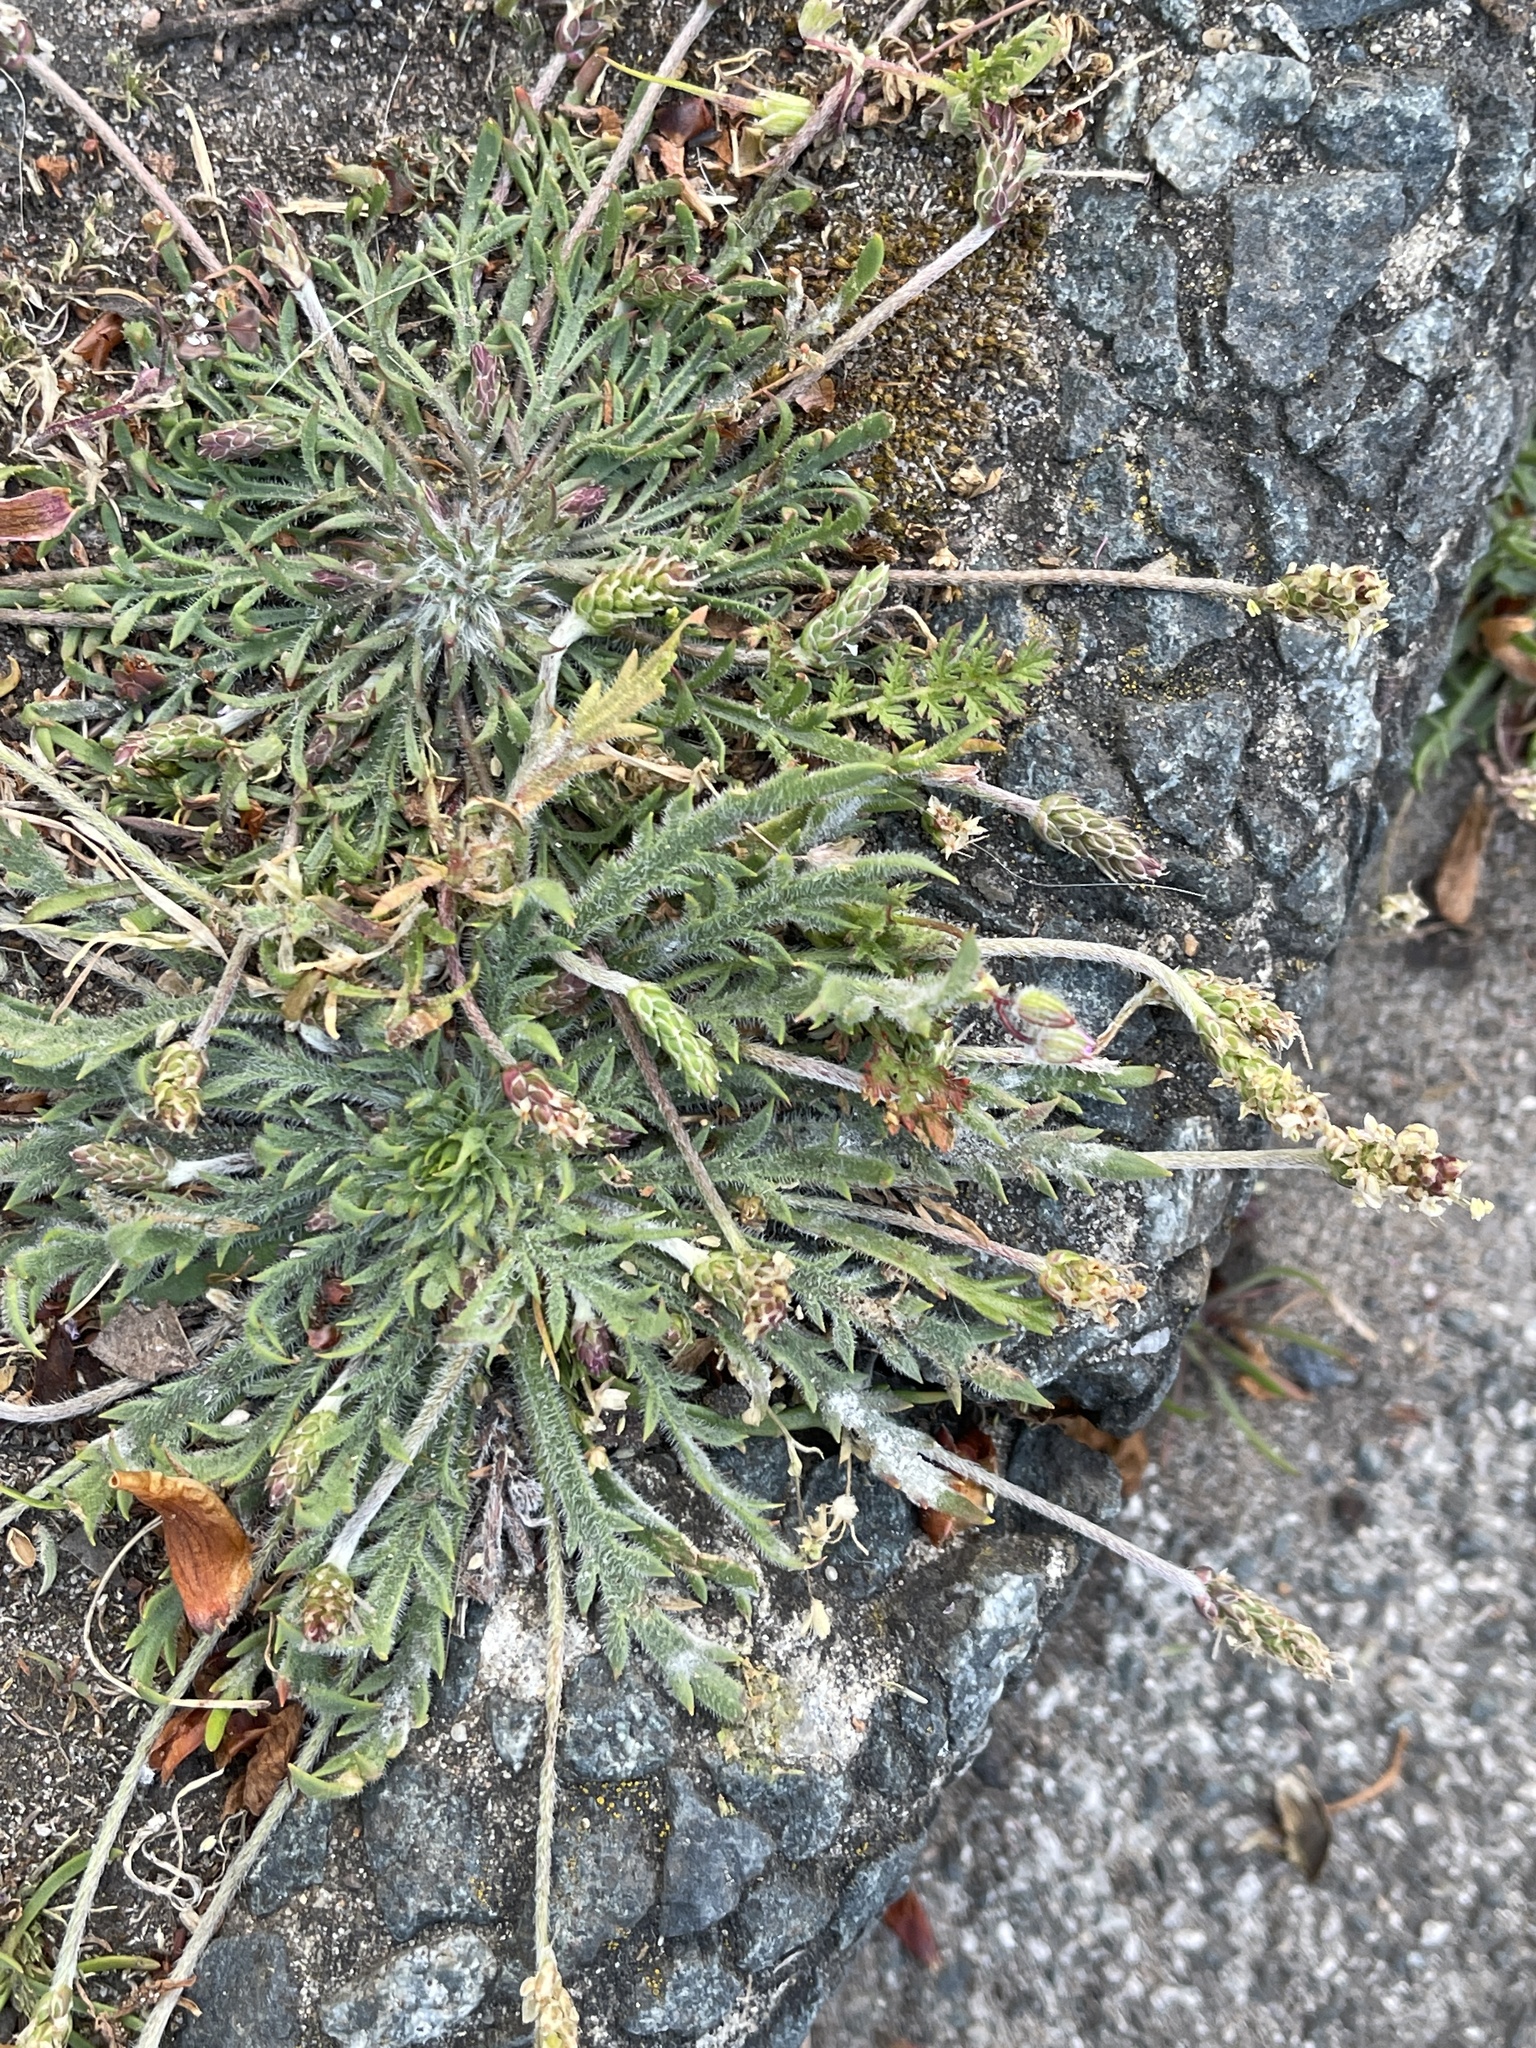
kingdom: Plantae
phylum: Tracheophyta
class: Magnoliopsida
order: Lamiales
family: Plantaginaceae
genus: Plantago
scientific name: Plantago coronopus
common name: Buck's-horn plantain
